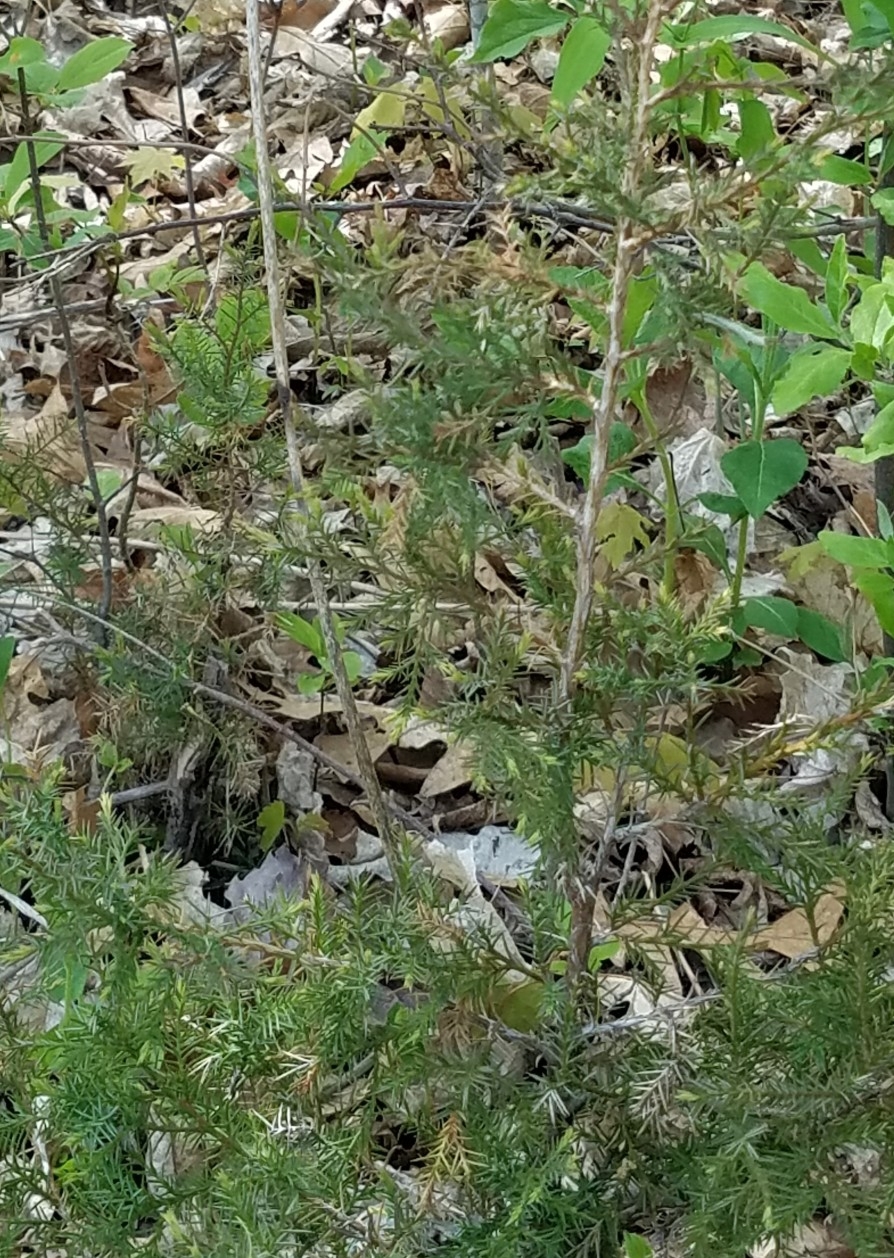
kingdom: Plantae
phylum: Tracheophyta
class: Pinopsida
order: Pinales
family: Cupressaceae
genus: Juniperus
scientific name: Juniperus virginiana
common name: Red juniper
